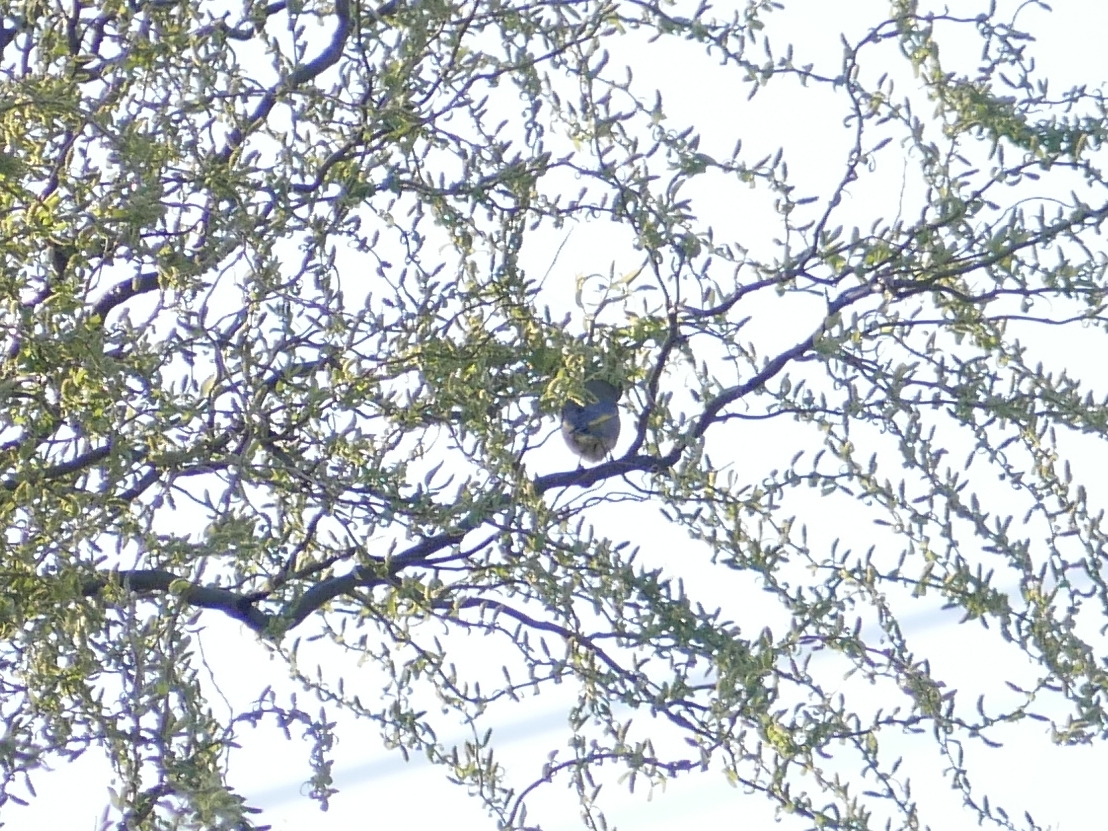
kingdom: Plantae
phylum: Tracheophyta
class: Liliopsida
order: Poales
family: Poaceae
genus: Chloris
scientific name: Chloris chloris
